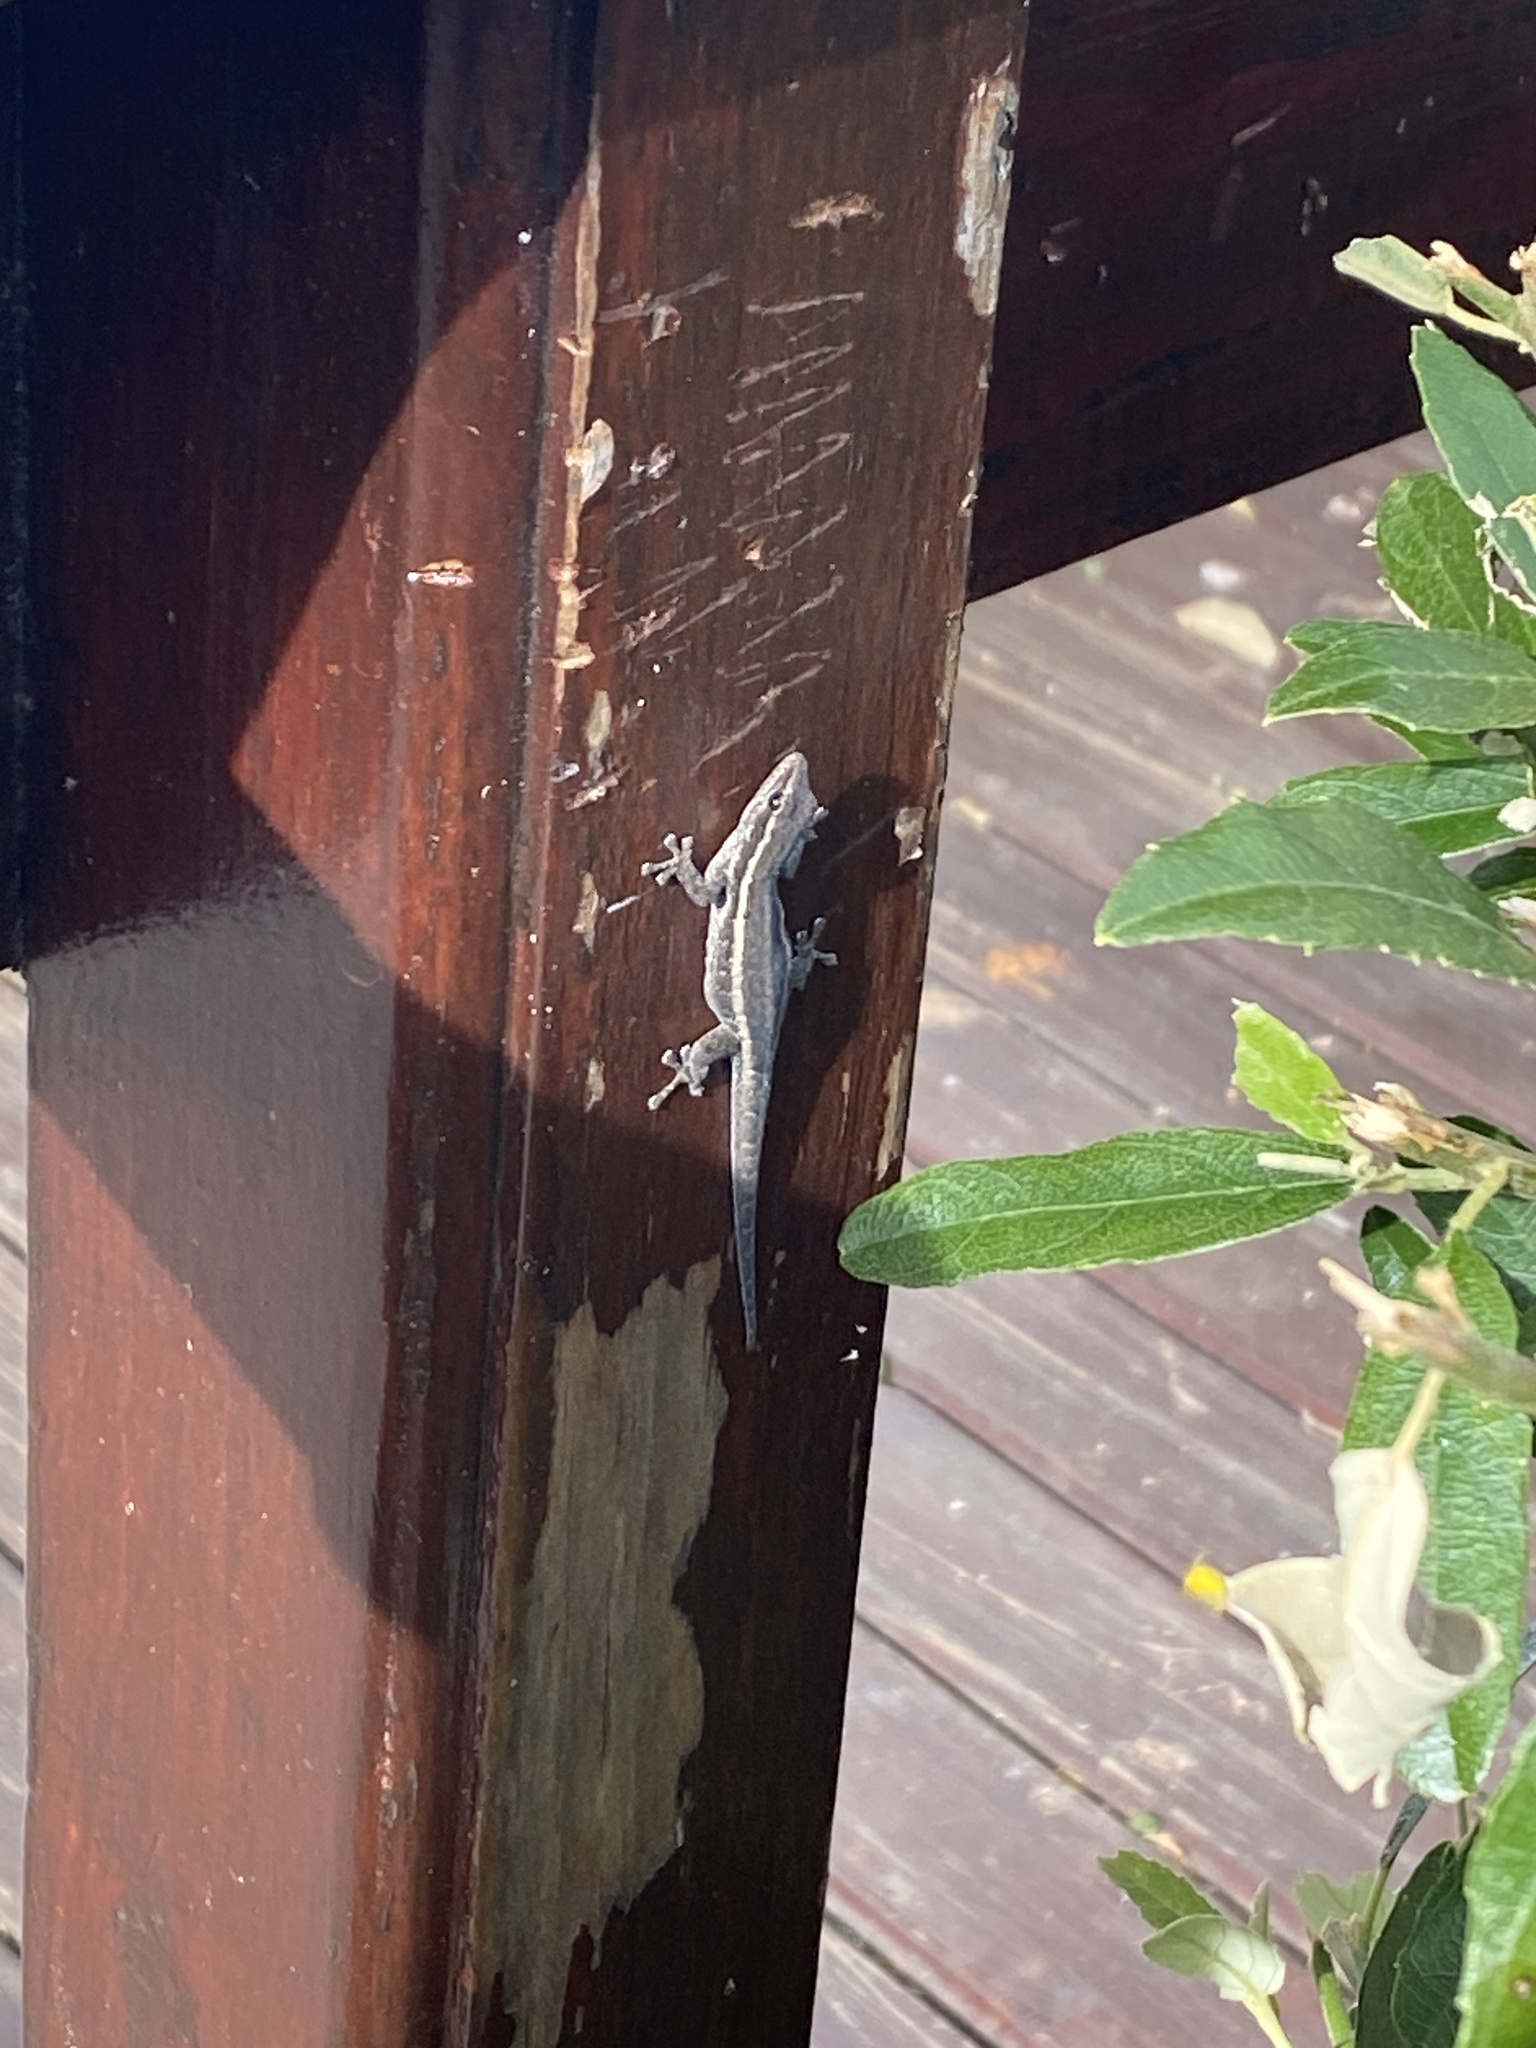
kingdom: Animalia
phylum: Chordata
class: Squamata
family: Gekkonidae
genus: Lygodactylus
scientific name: Lygodactylus capensis
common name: Cape dwarf gecko
